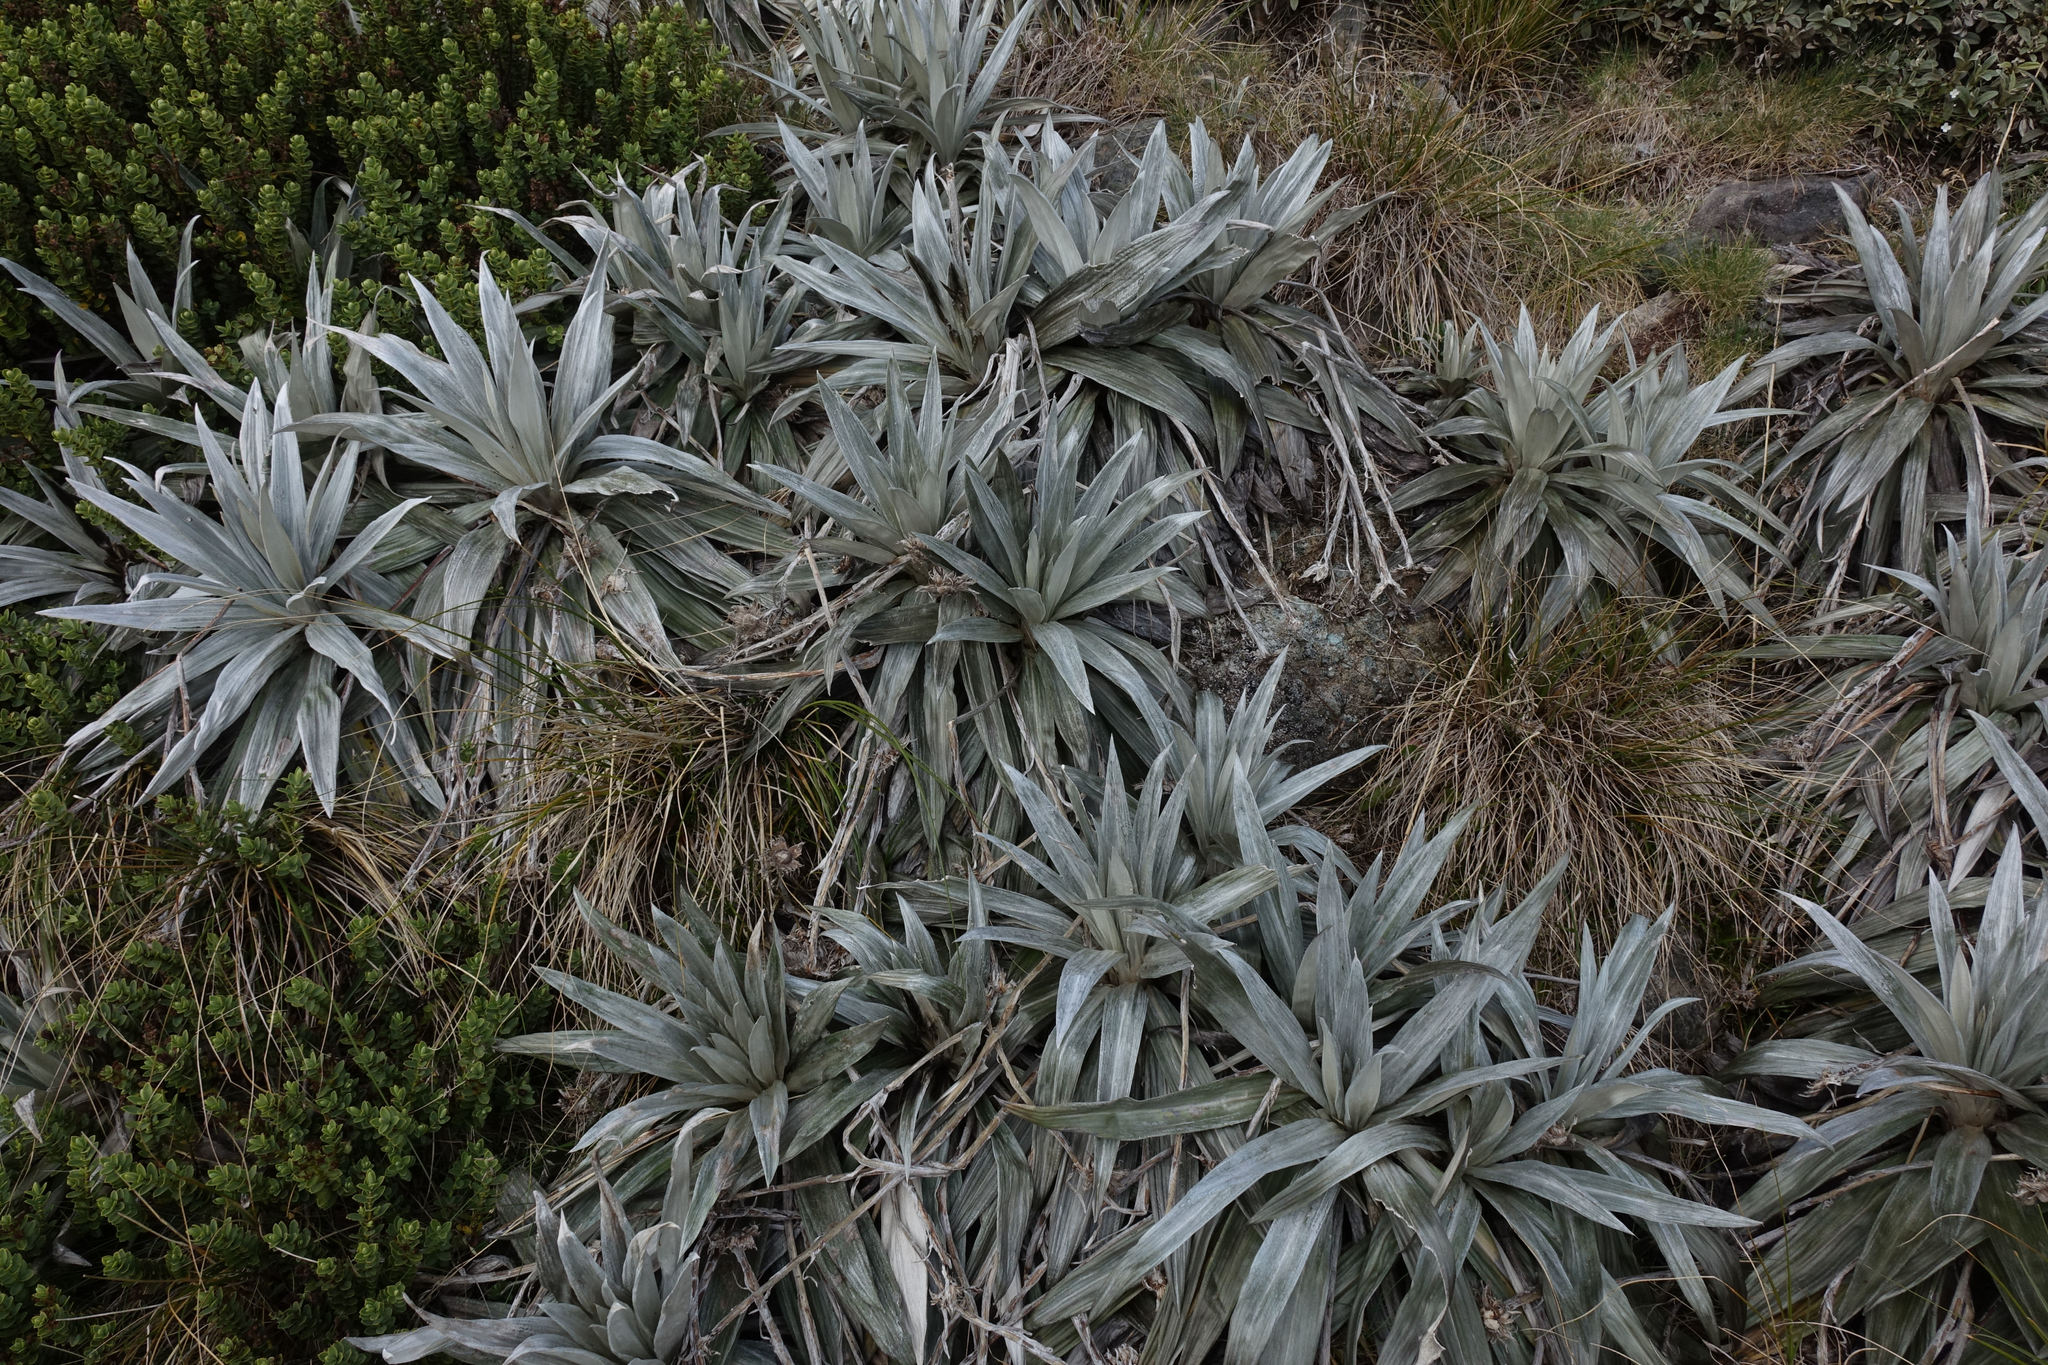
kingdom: Plantae
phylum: Tracheophyta
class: Magnoliopsida
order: Asterales
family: Asteraceae
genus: Celmisia
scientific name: Celmisia semicordata
